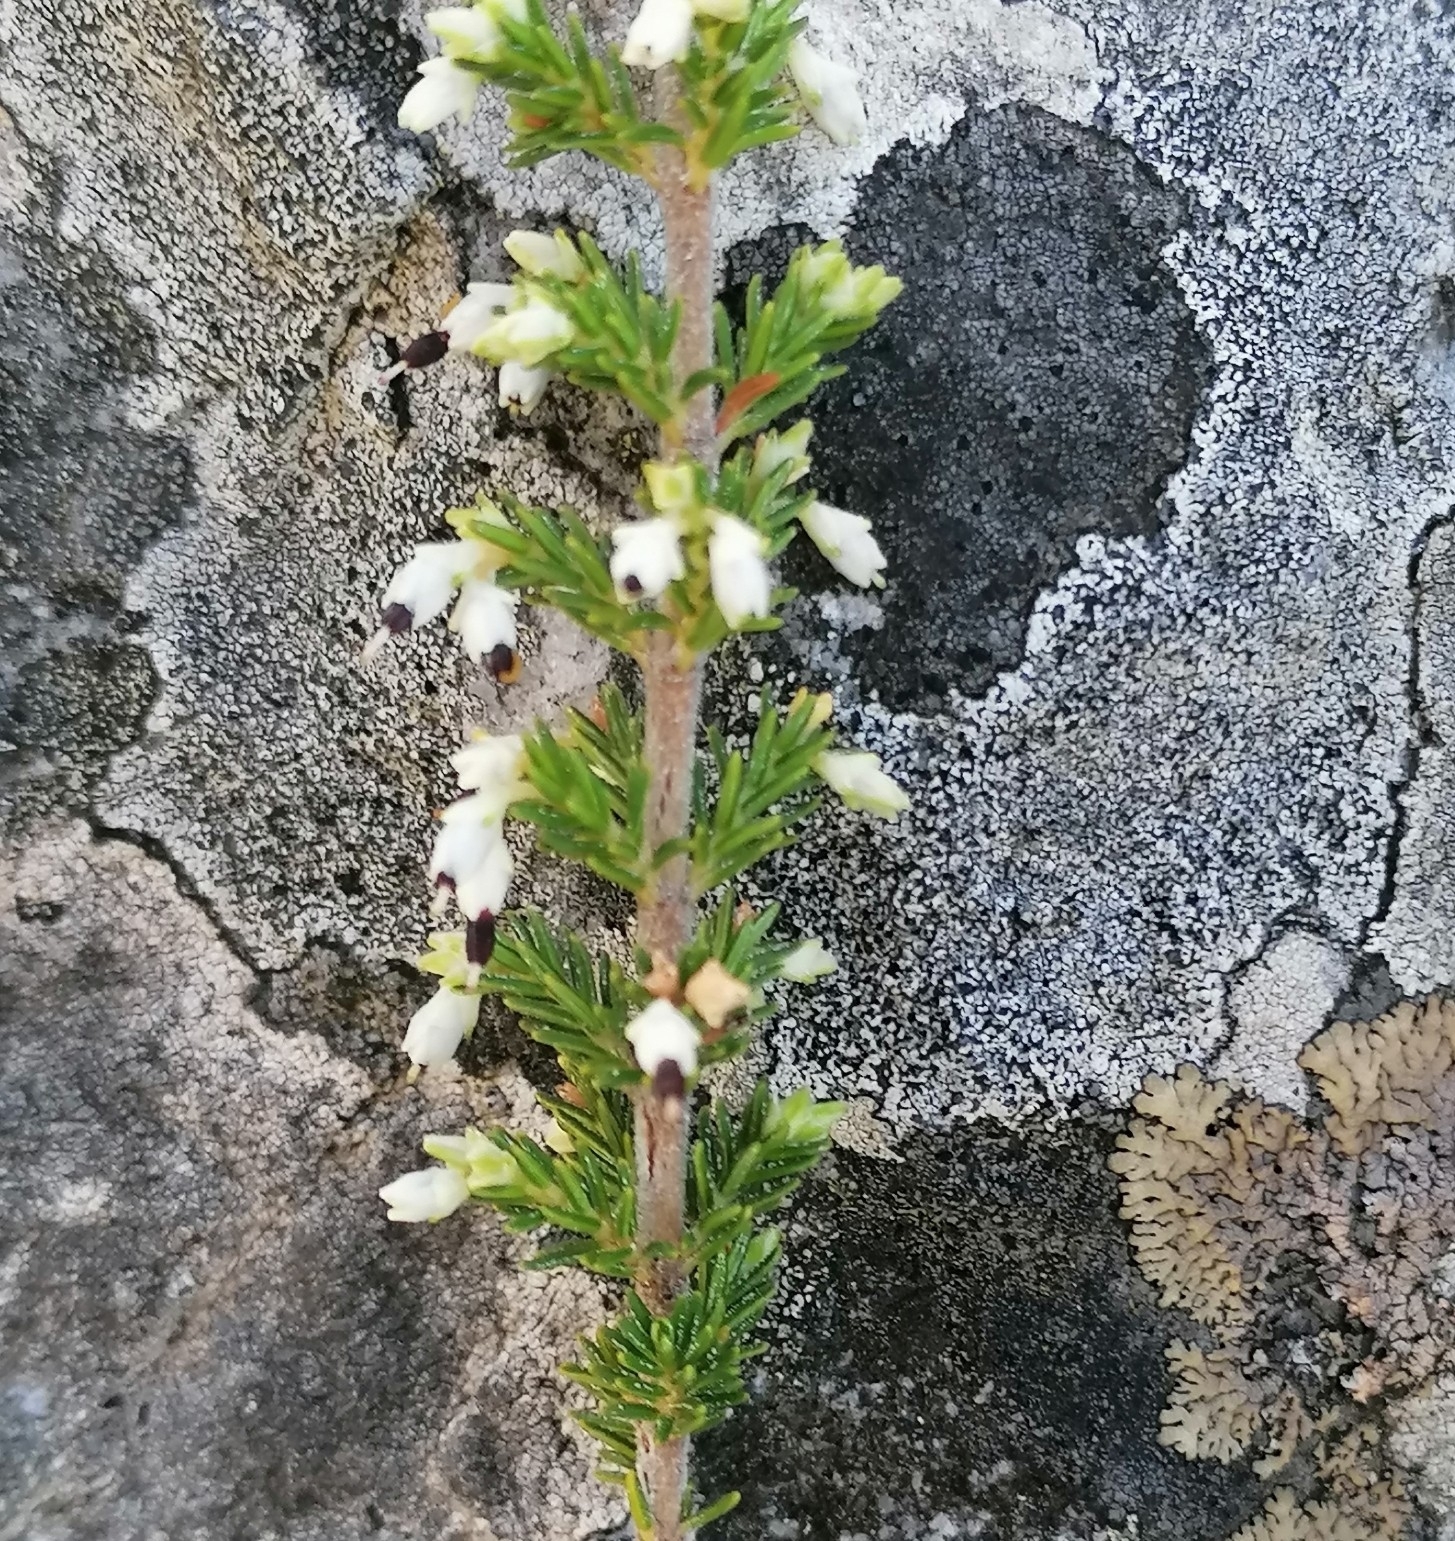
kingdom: Plantae
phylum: Tracheophyta
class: Magnoliopsida
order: Ericales
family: Ericaceae
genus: Erica
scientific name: Erica imbricata
